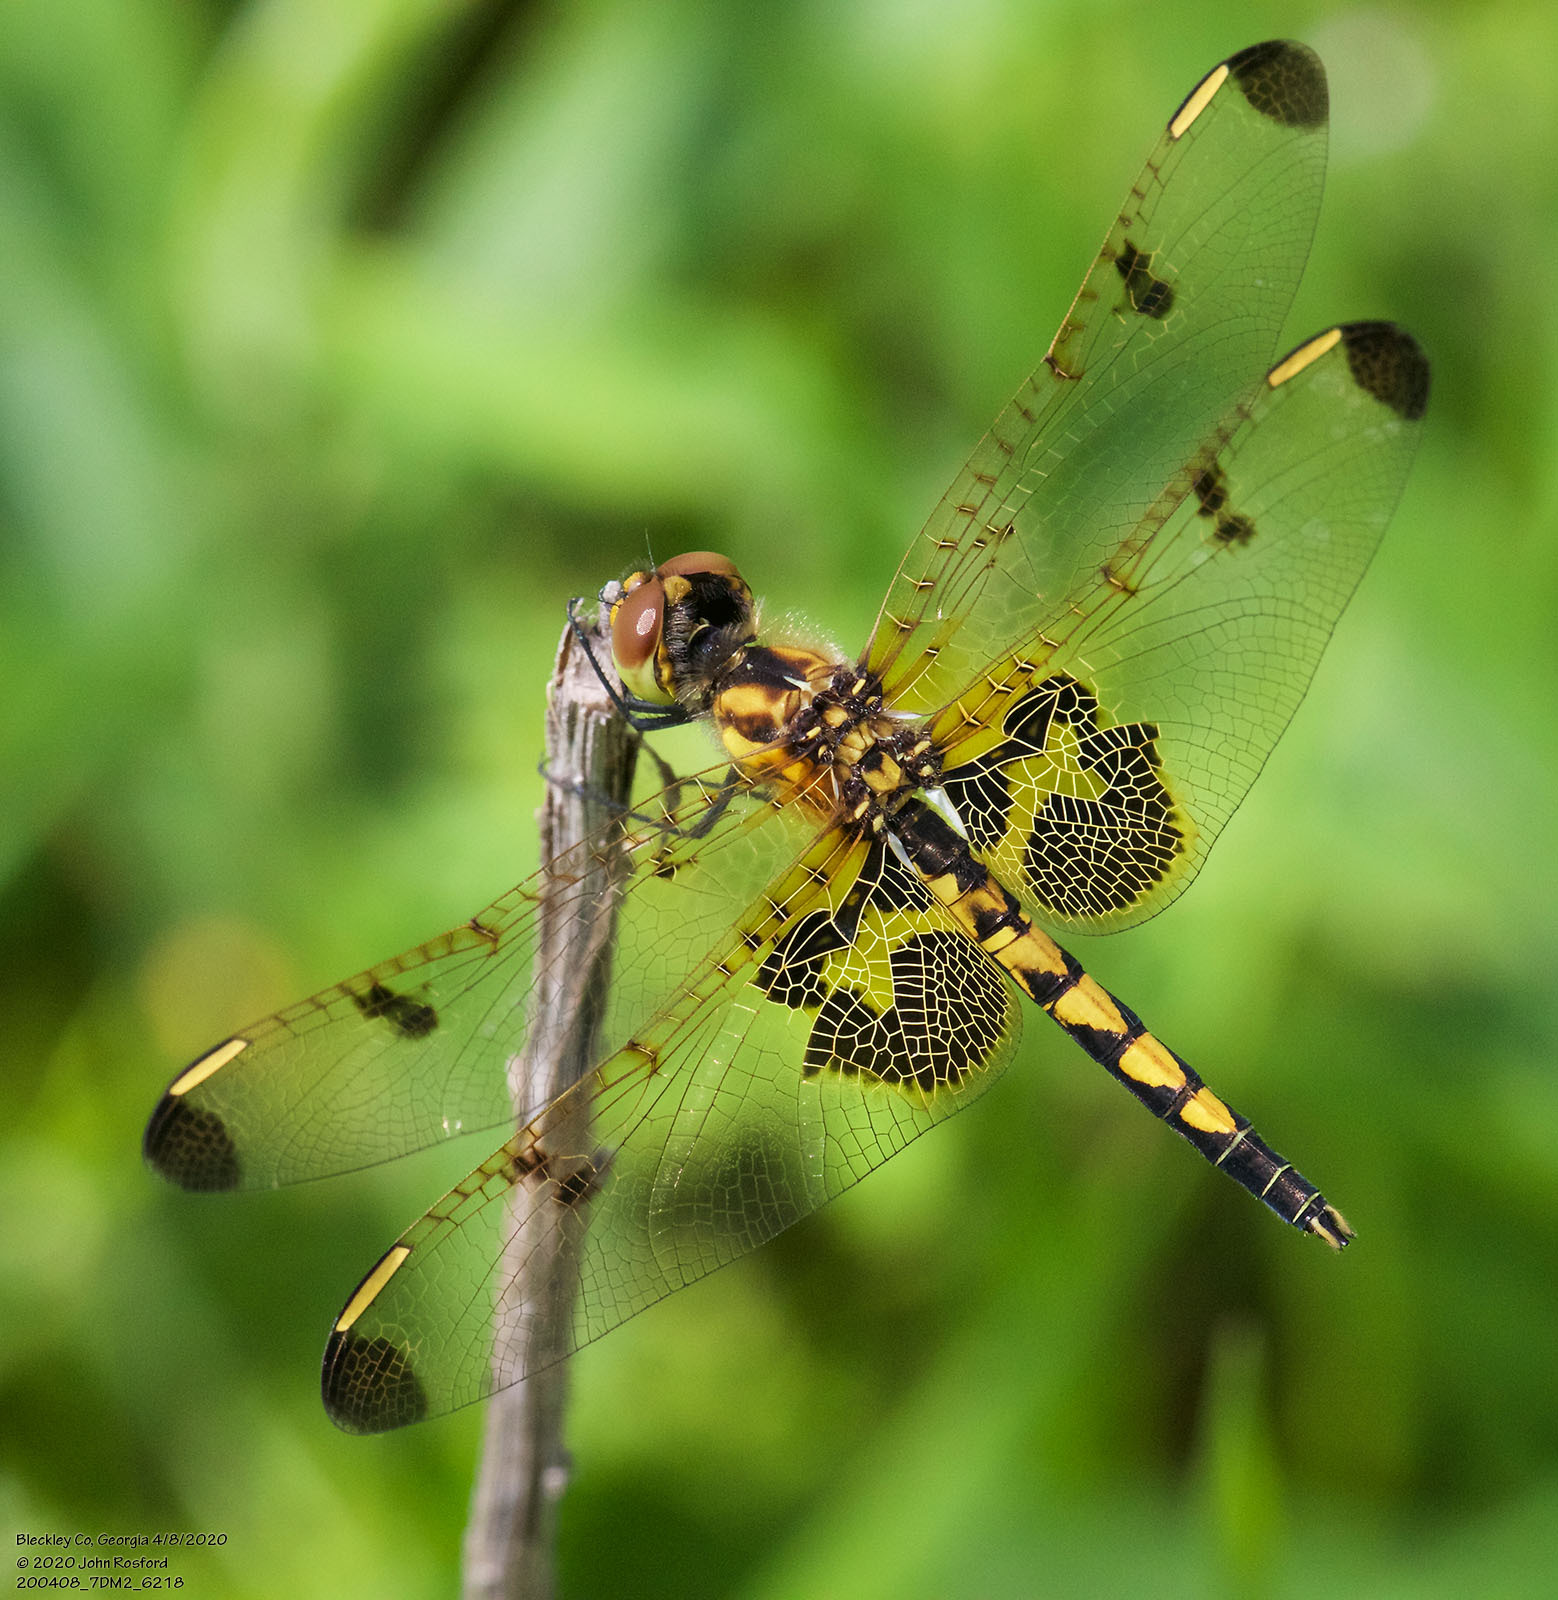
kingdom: Animalia
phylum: Arthropoda
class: Insecta
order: Odonata
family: Libellulidae
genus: Celithemis
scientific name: Celithemis elisa
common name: Calico pennant
